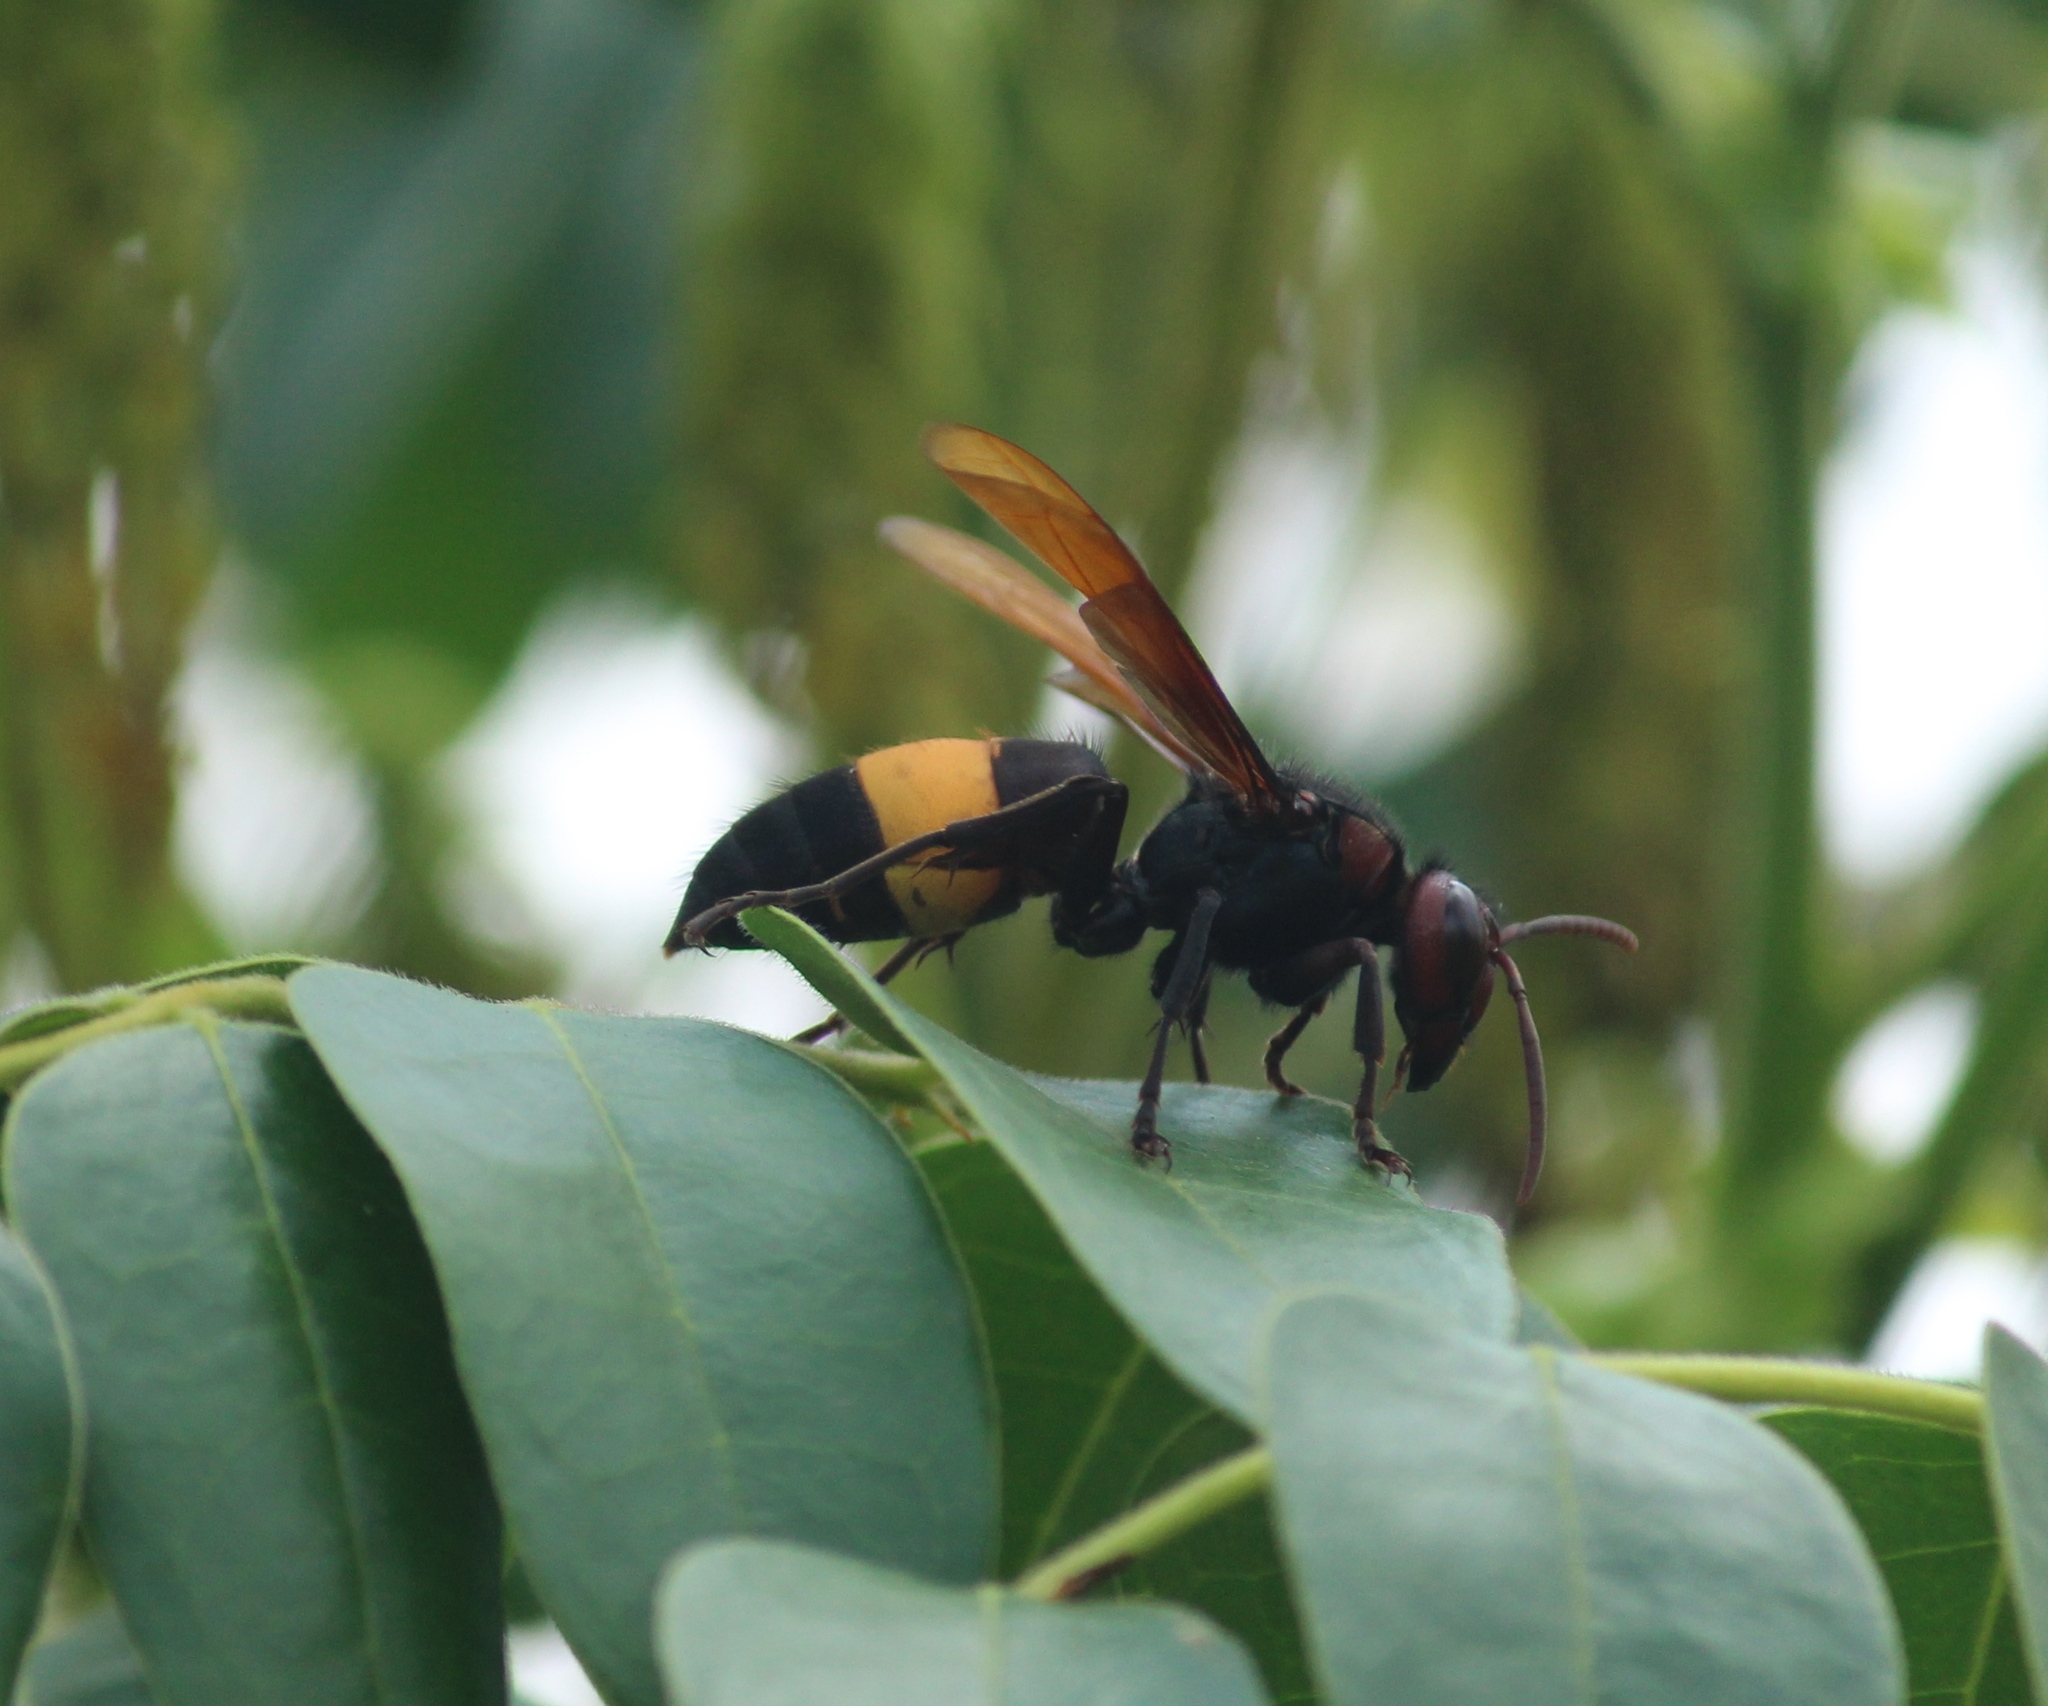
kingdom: Animalia
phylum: Arthropoda
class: Insecta
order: Hymenoptera
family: Vespidae
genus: Vespa
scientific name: Vespa tropica
